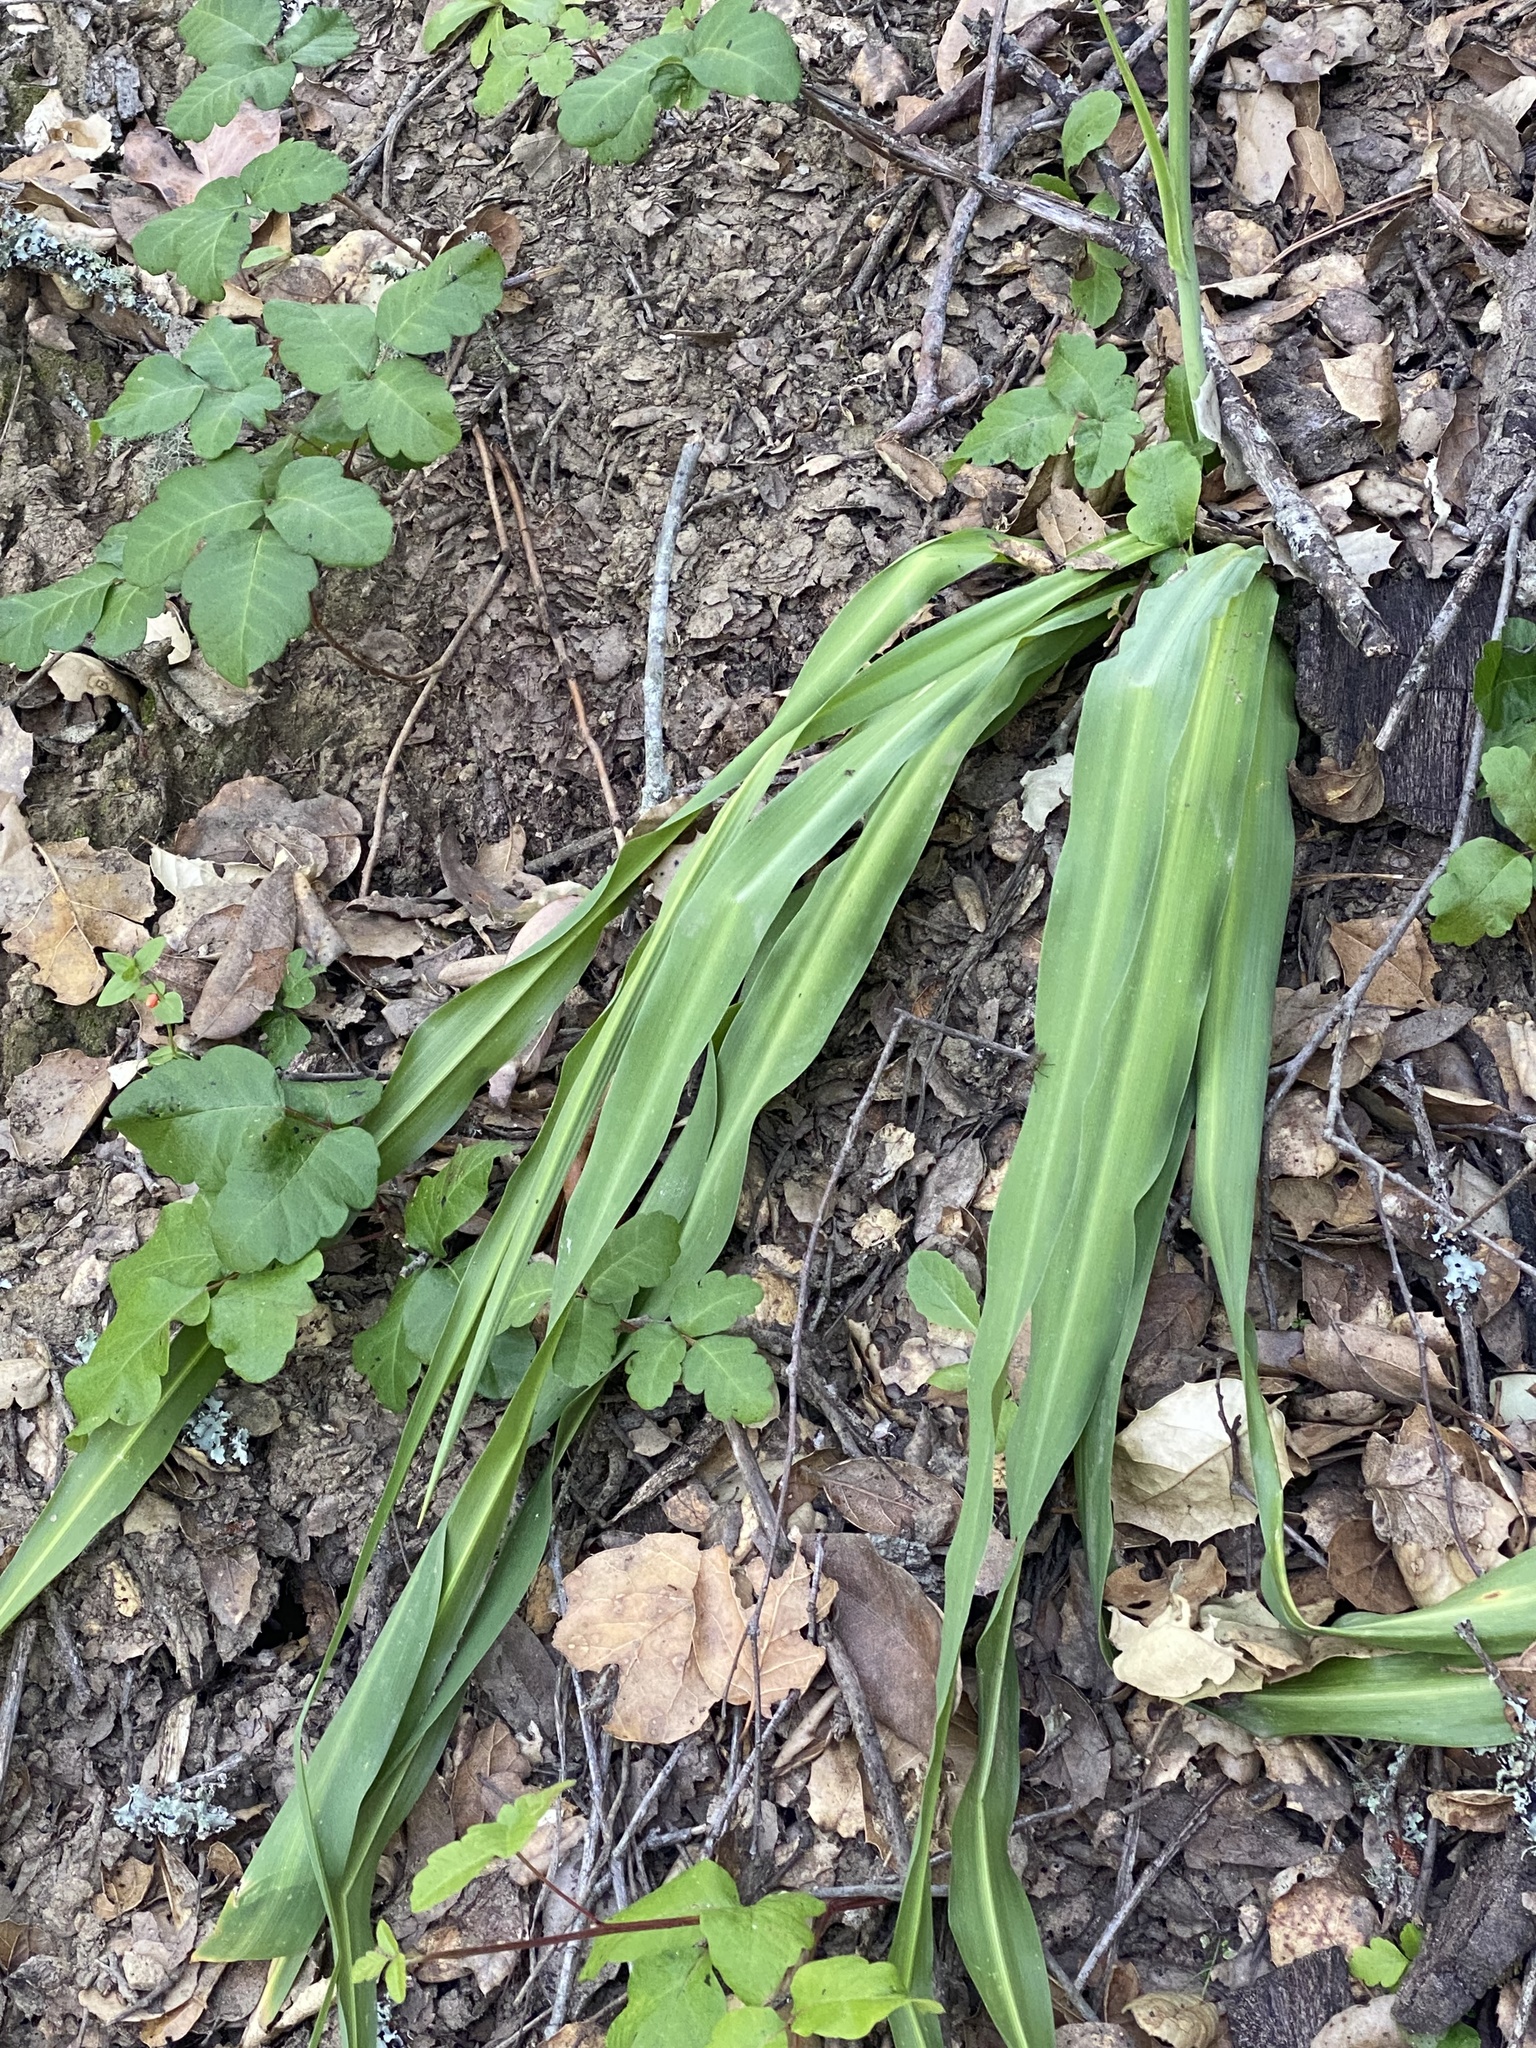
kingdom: Plantae
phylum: Tracheophyta
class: Liliopsida
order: Asparagales
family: Asparagaceae
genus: Chlorogalum
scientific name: Chlorogalum pomeridianum
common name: Amole
